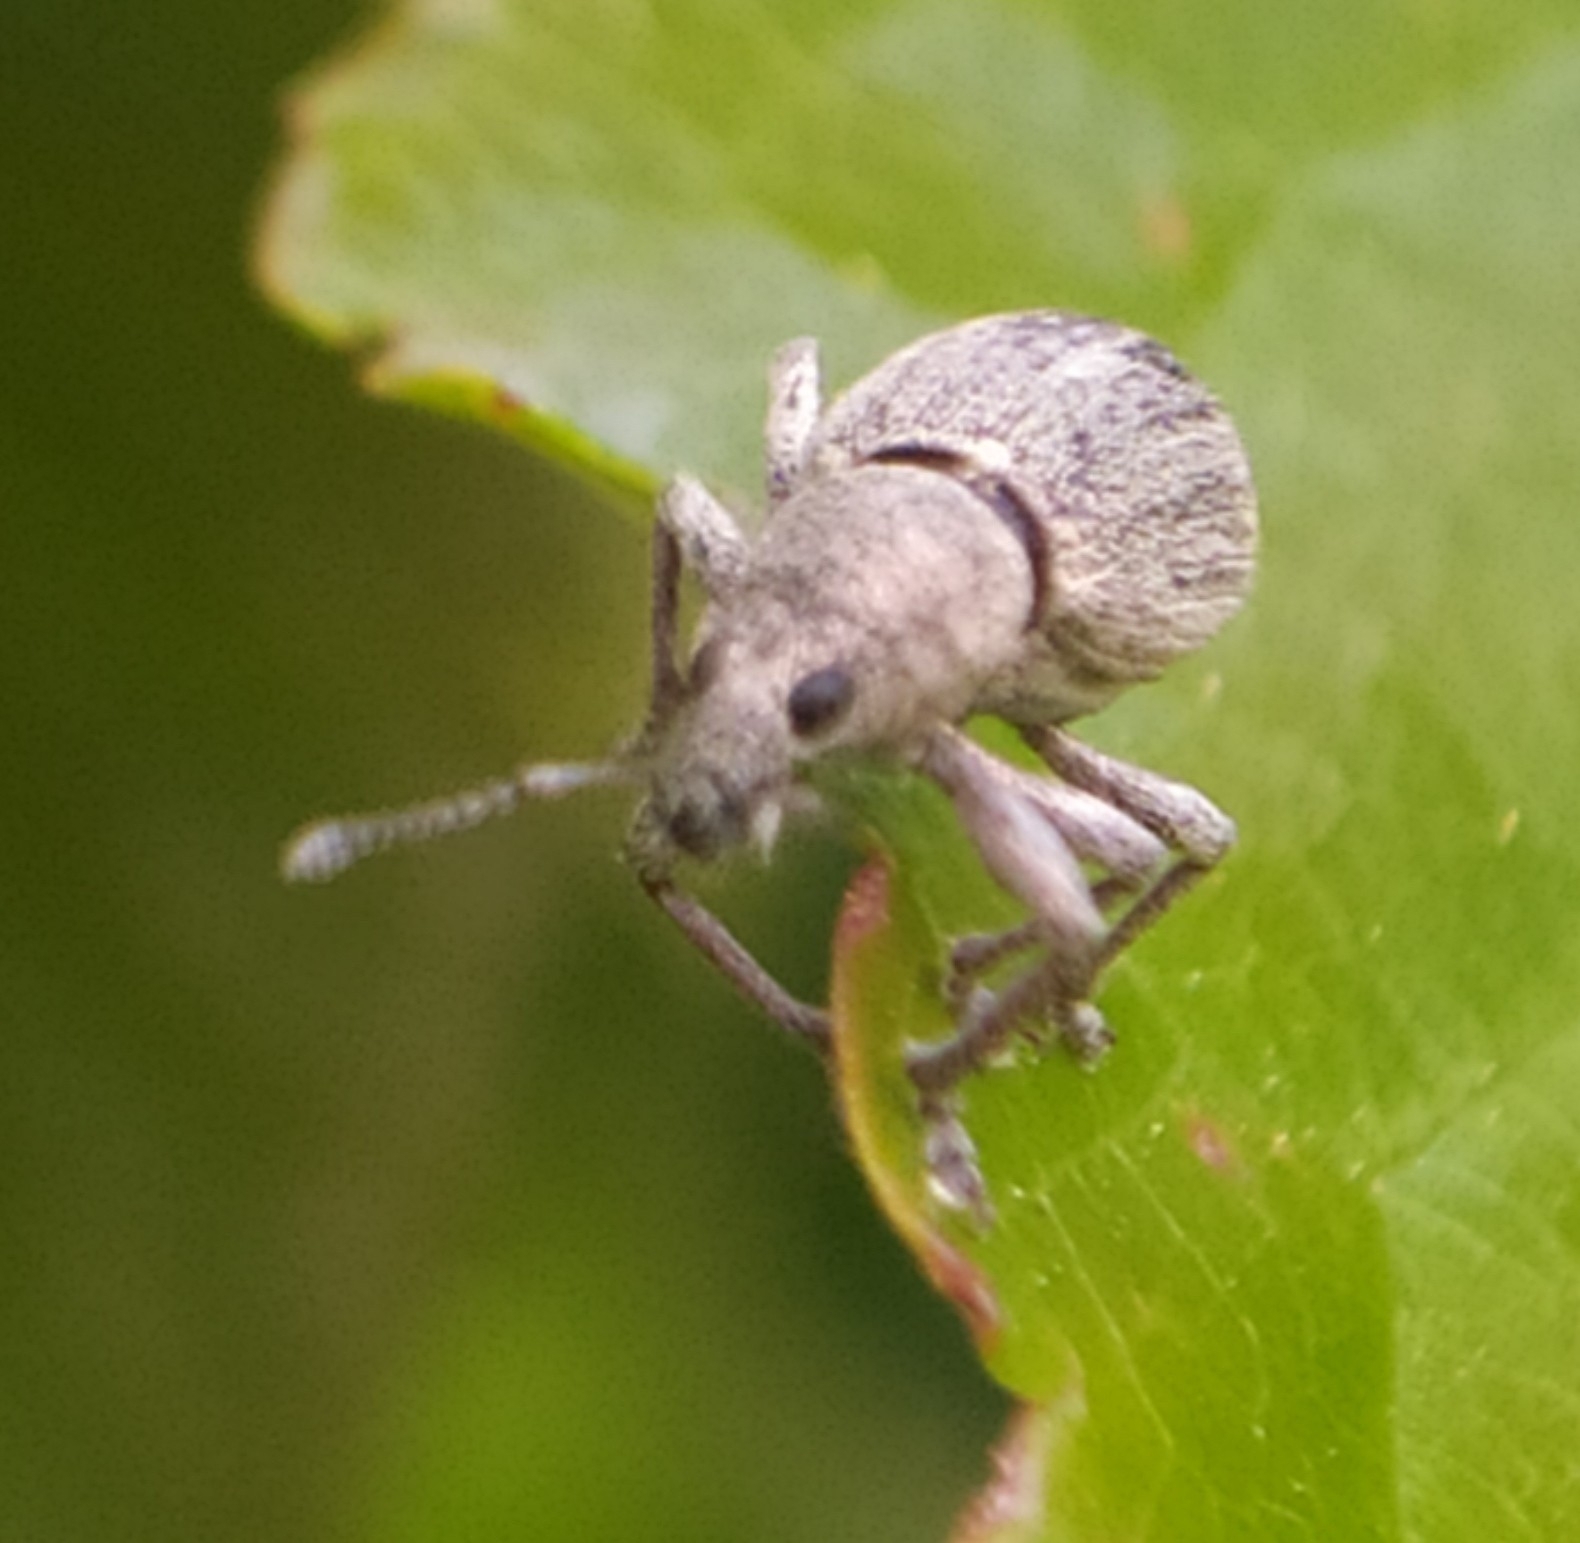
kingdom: Animalia
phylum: Arthropoda
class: Insecta
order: Coleoptera
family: Curculionidae
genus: Sciaphobus
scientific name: Sciaphobus squalidus
